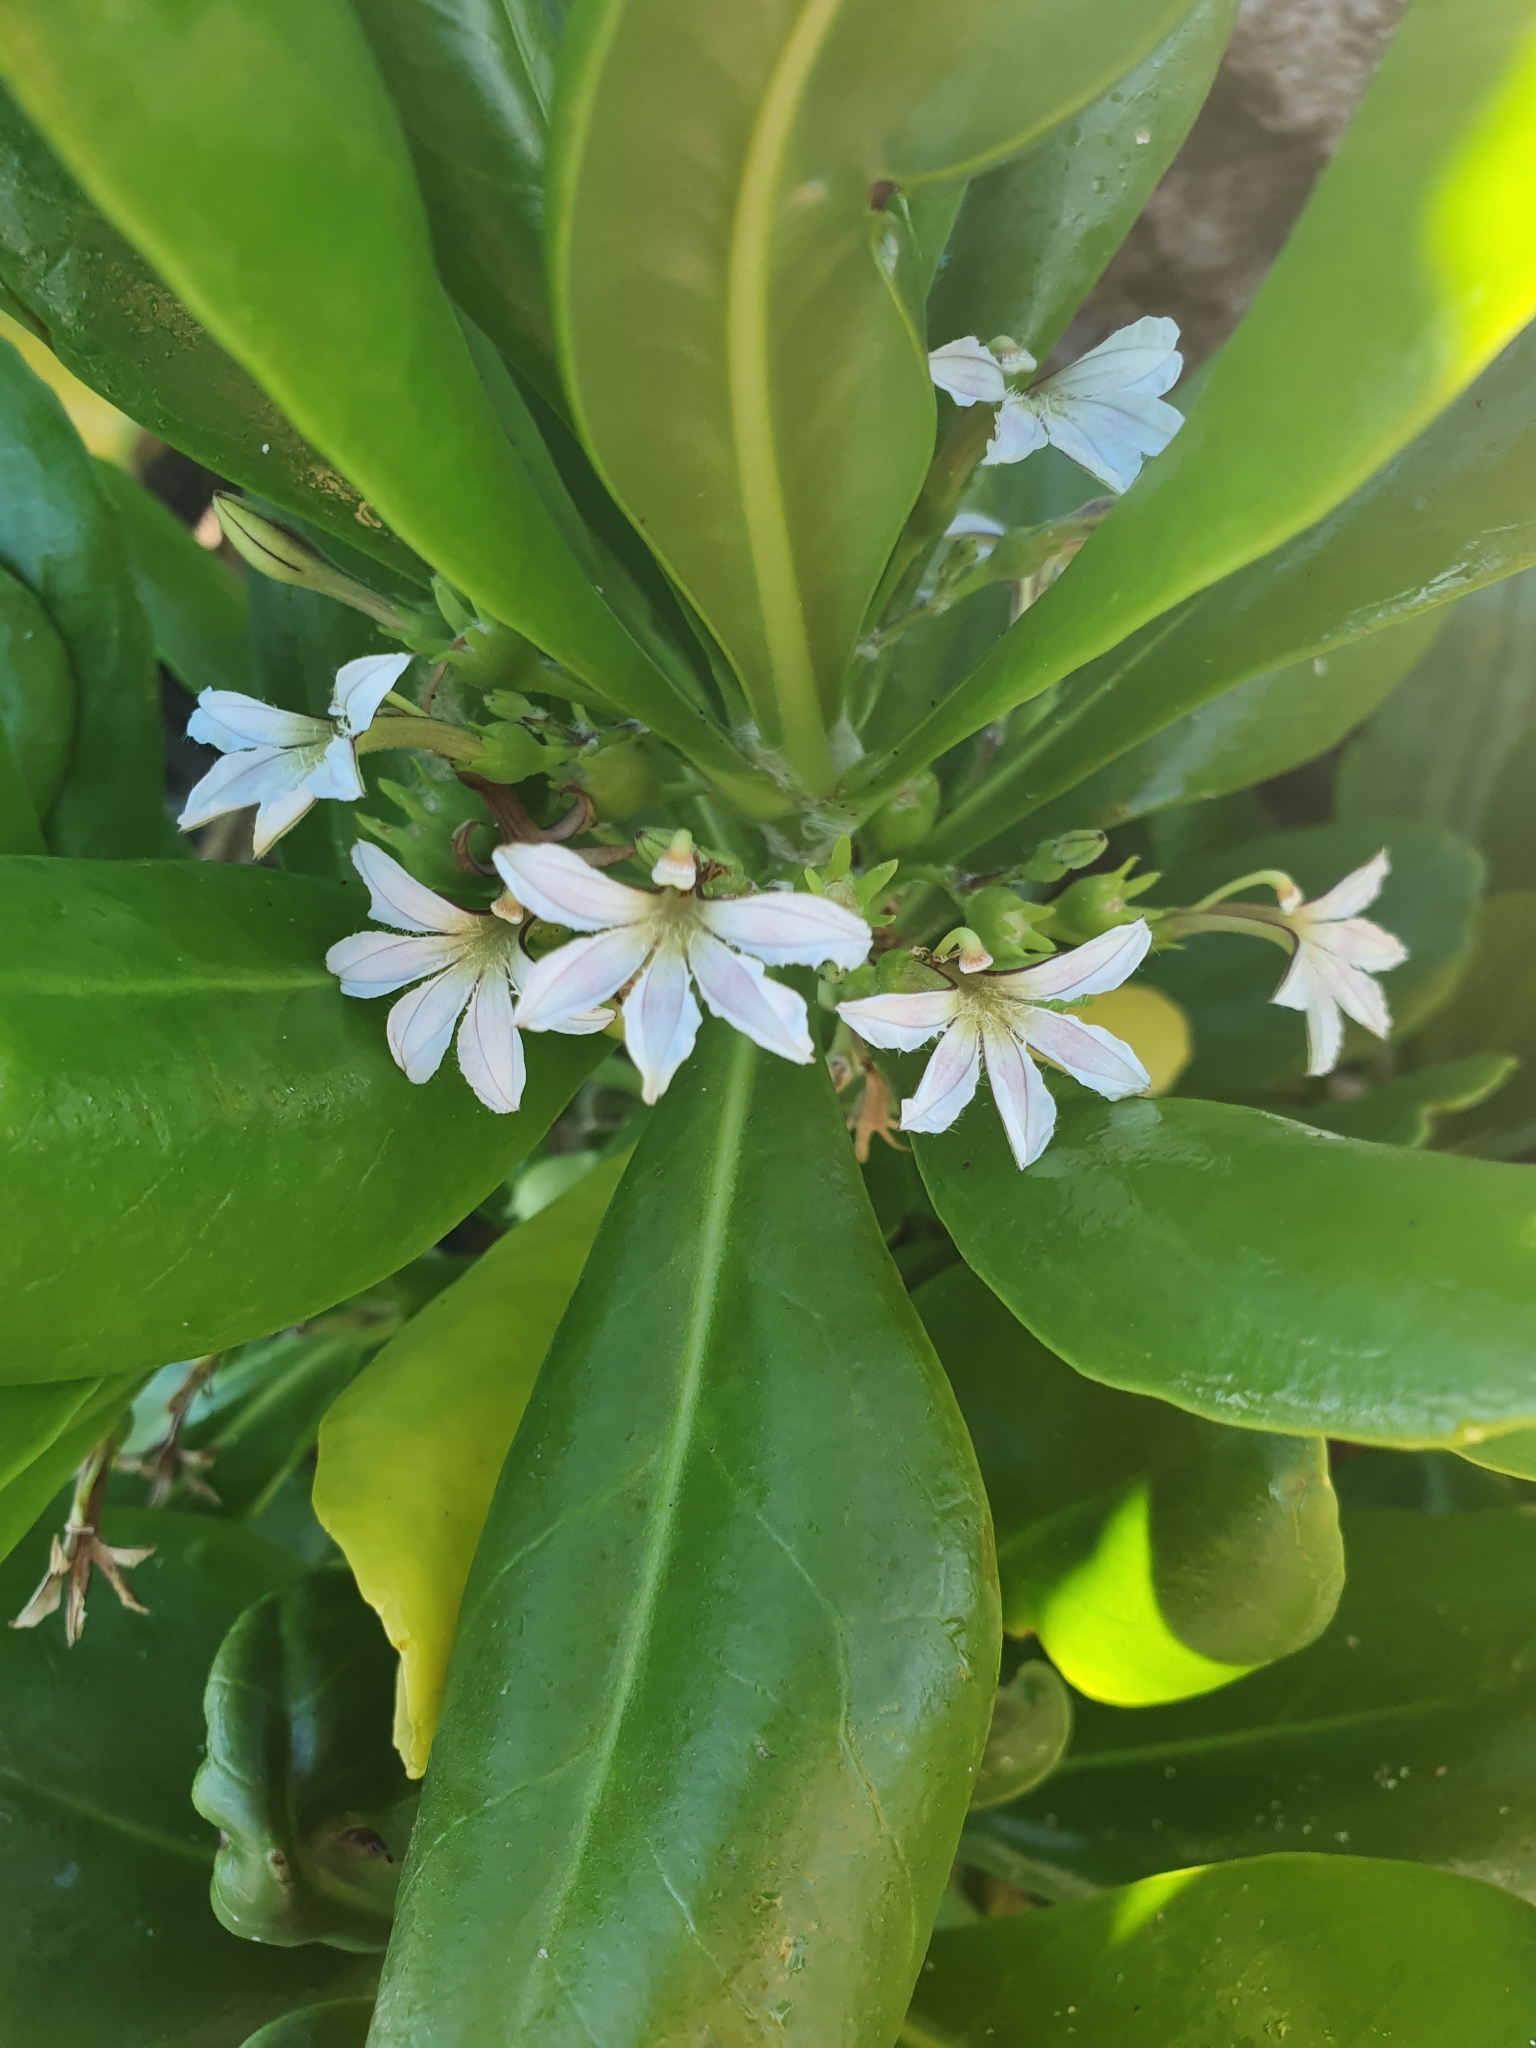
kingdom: Plantae
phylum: Tracheophyta
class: Magnoliopsida
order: Asterales
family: Goodeniaceae
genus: Scaevola
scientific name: Scaevola taccada
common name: Sea lettucetree
